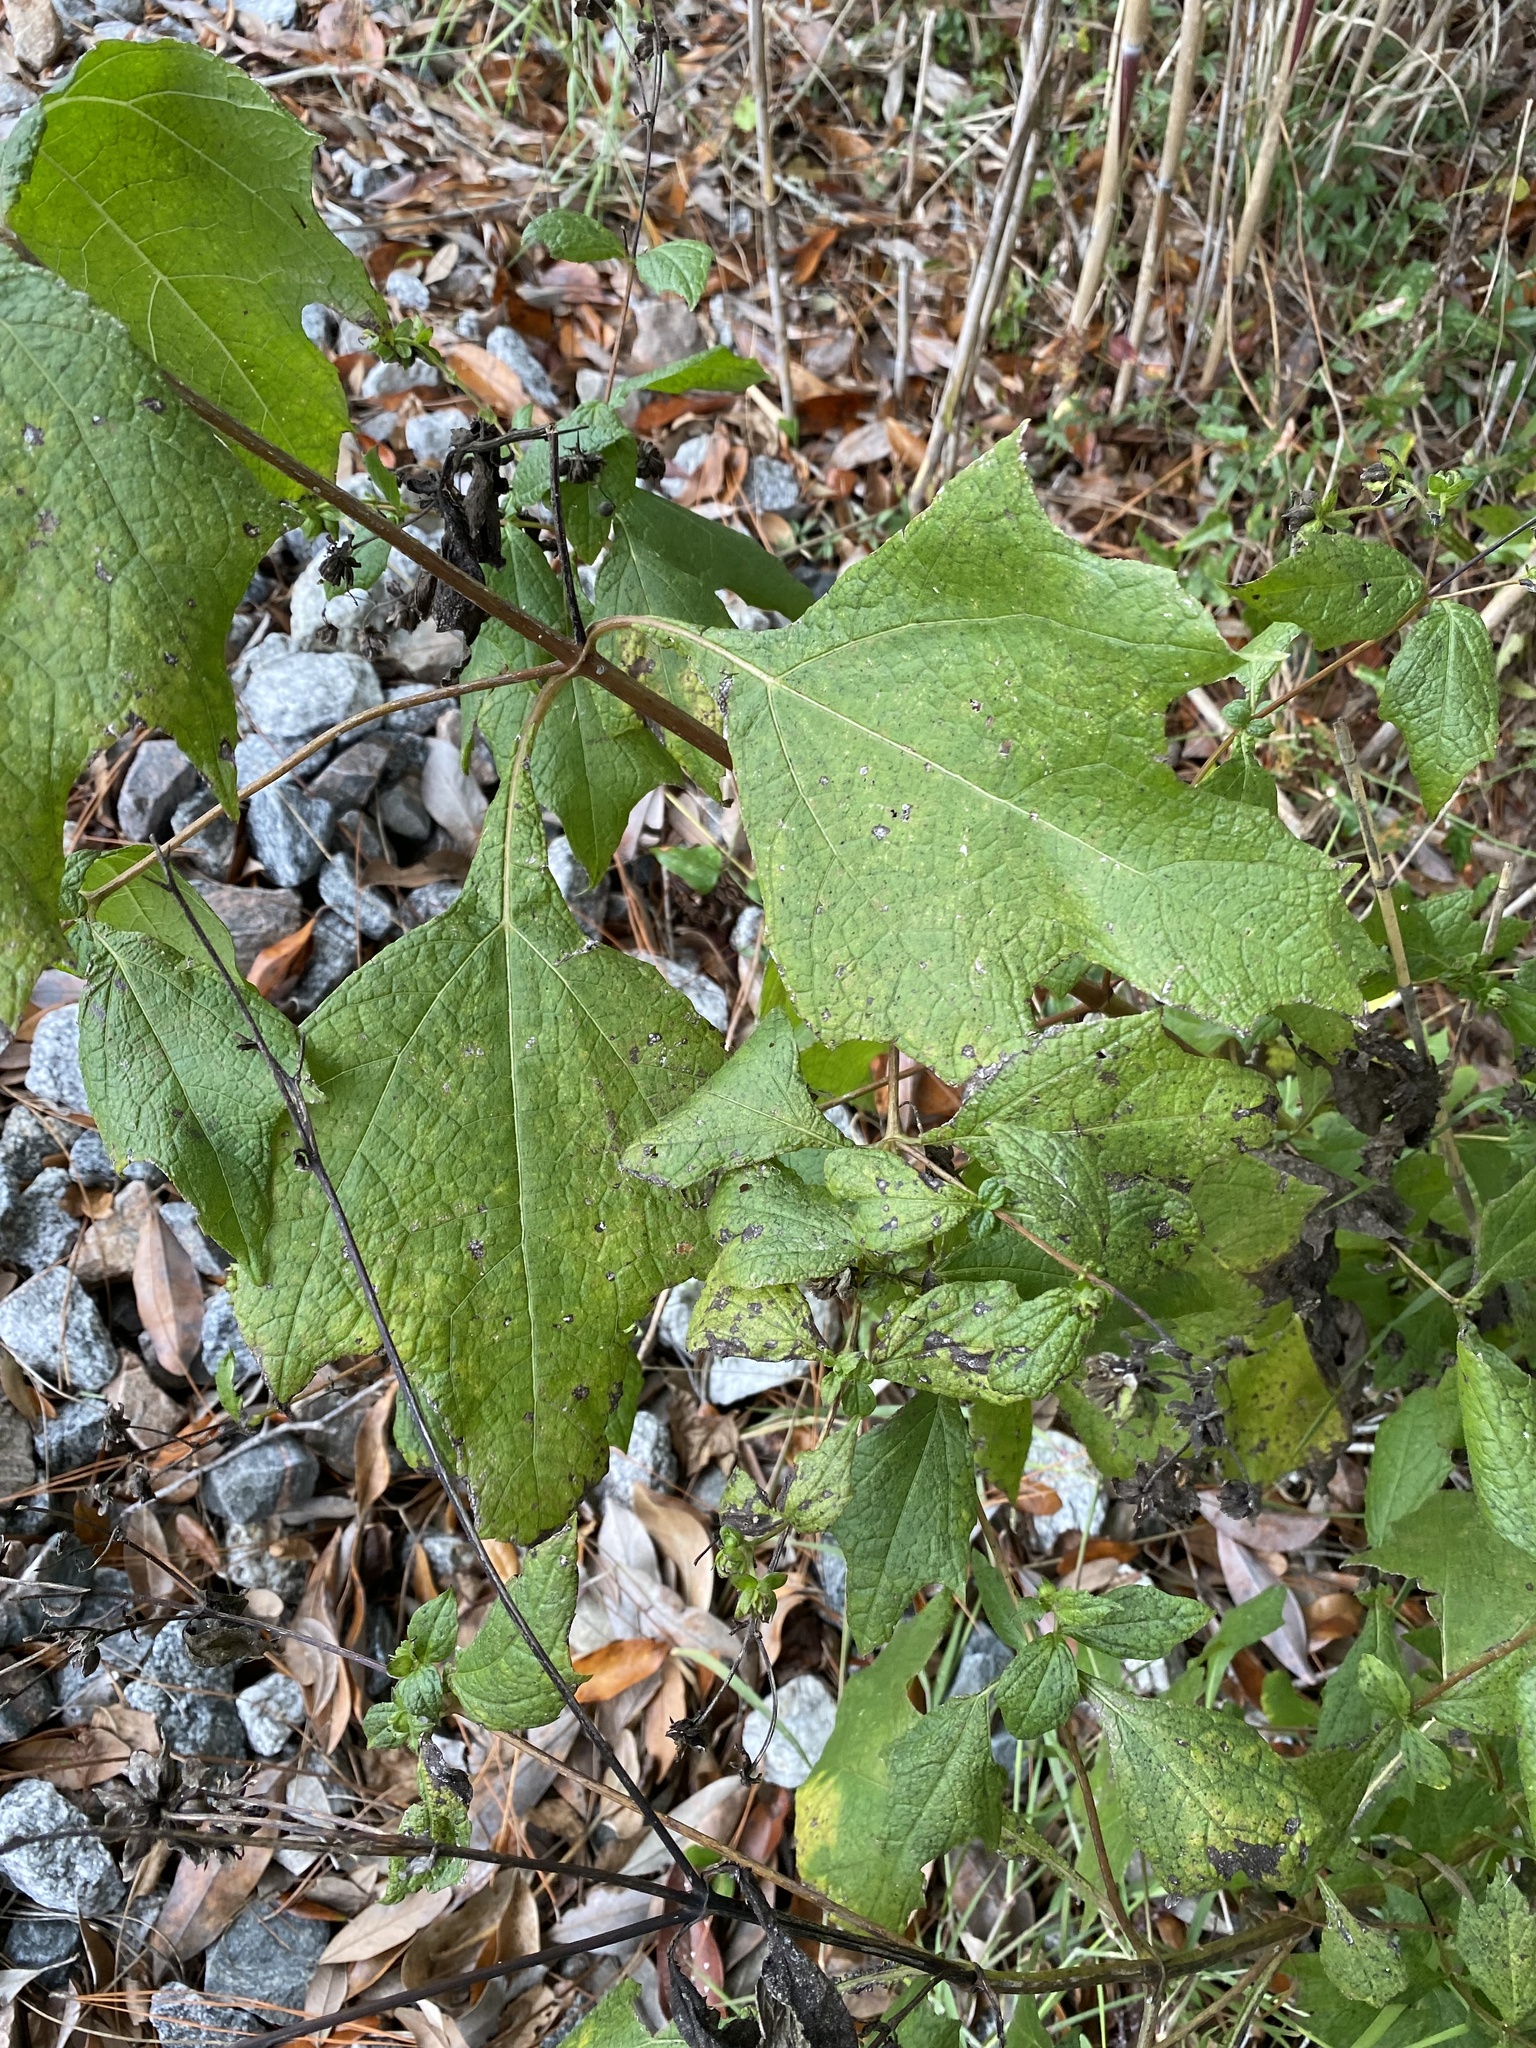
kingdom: Plantae
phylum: Tracheophyta
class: Magnoliopsida
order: Asterales
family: Asteraceae
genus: Smallanthus
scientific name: Smallanthus uvedalia
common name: Bear's-foot
